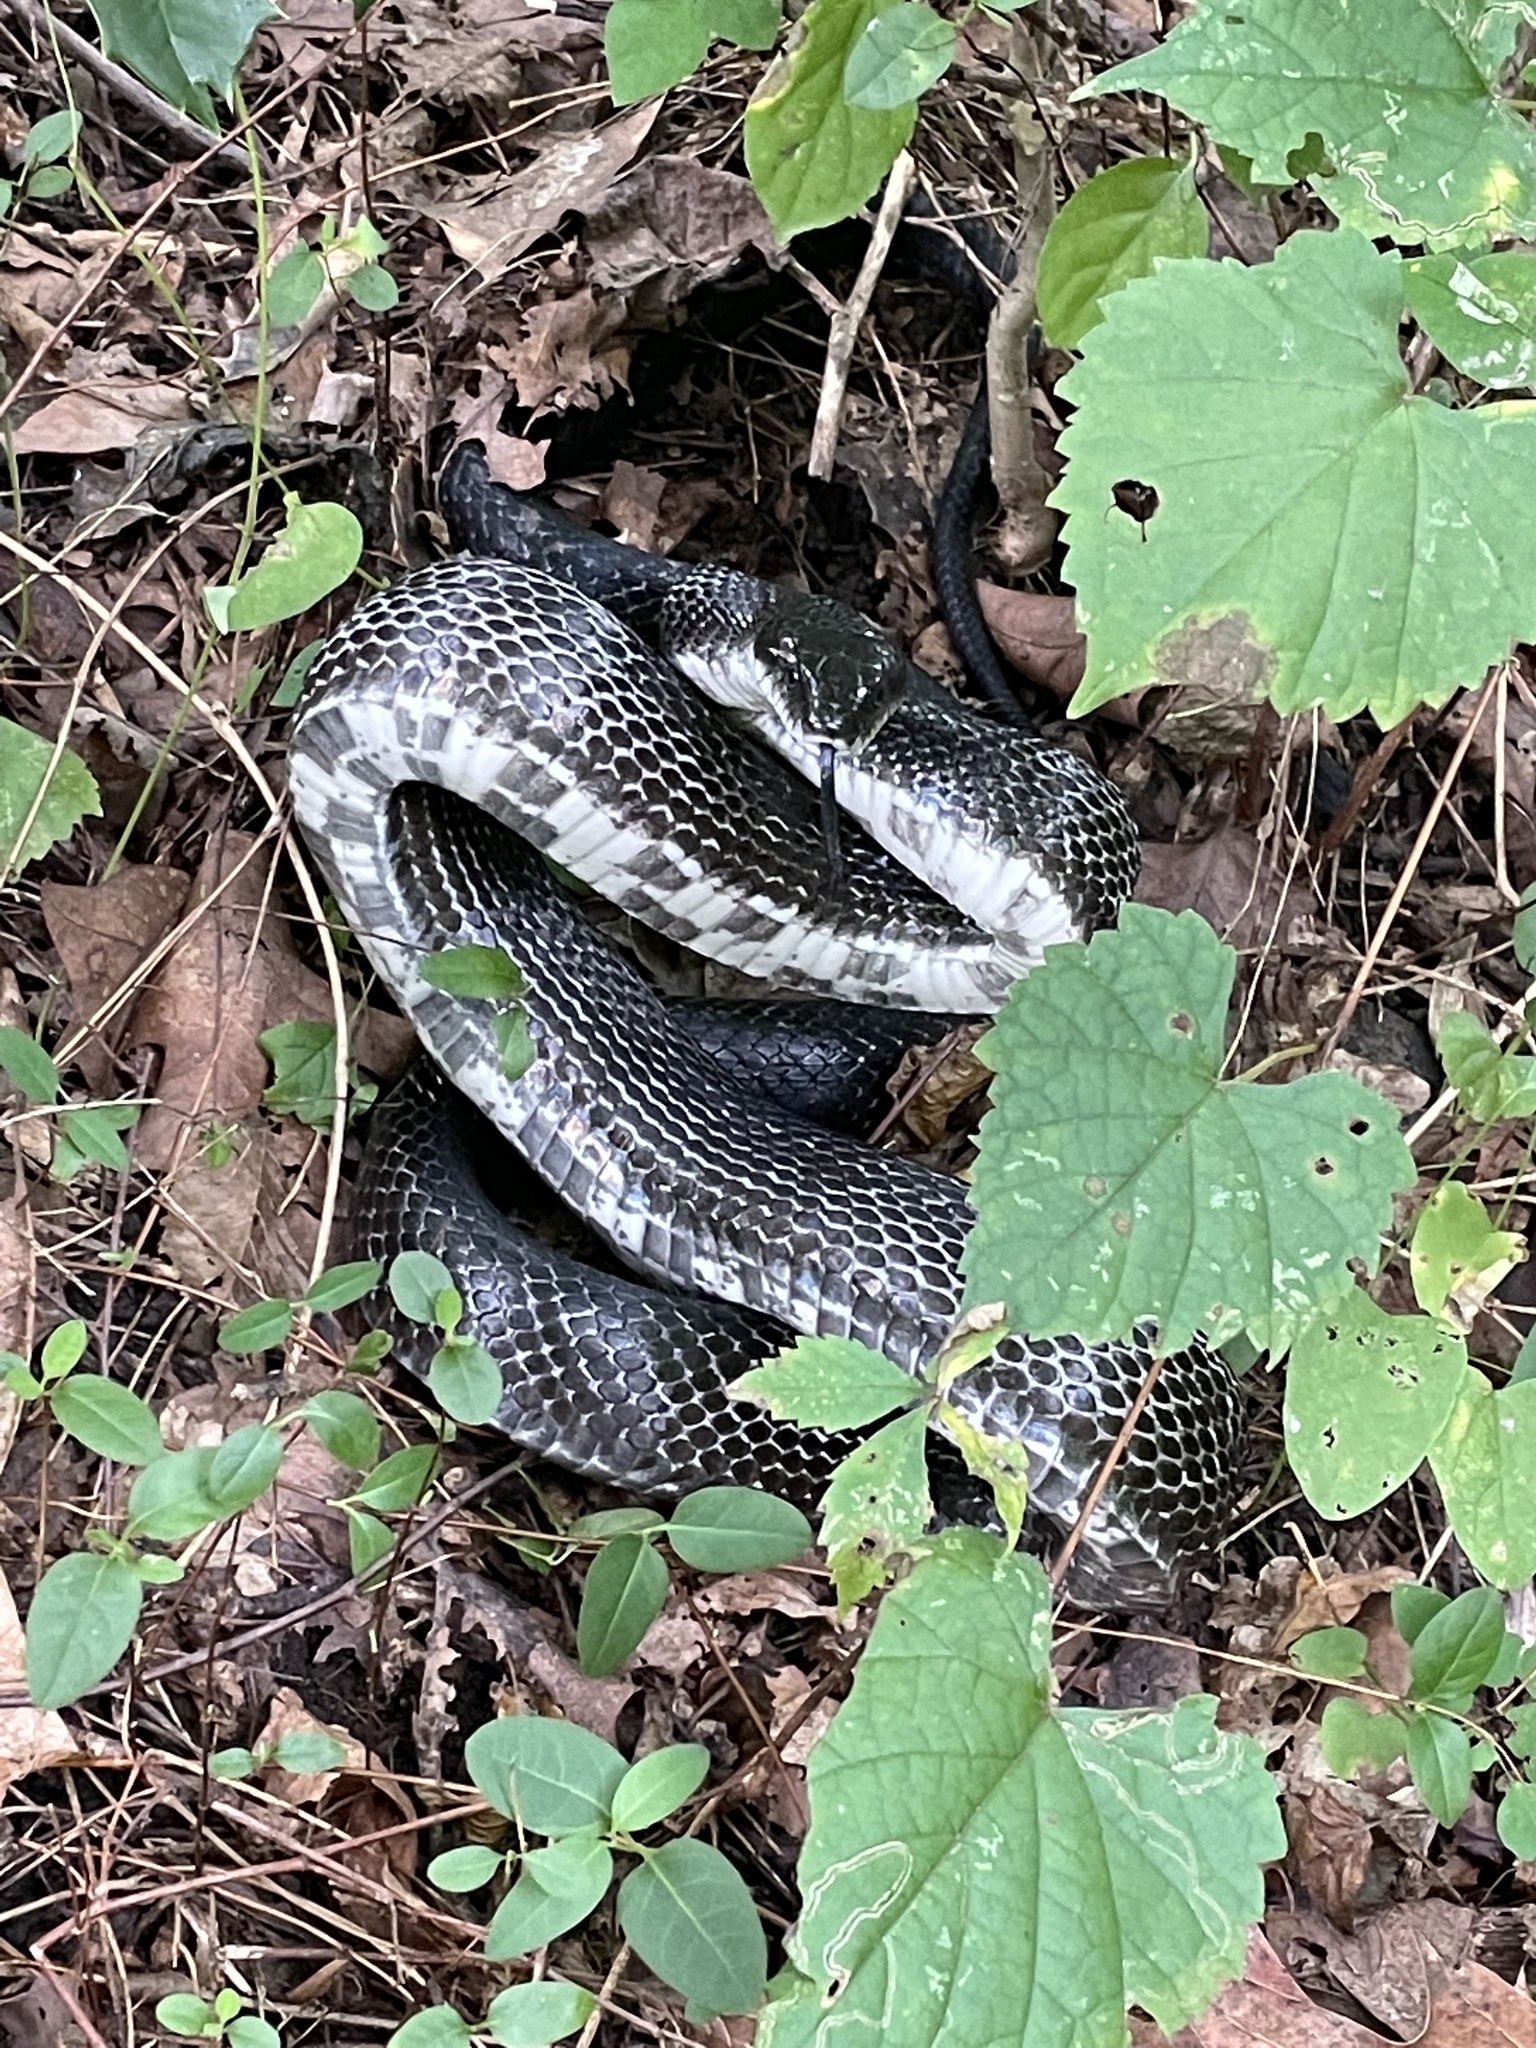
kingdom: Animalia
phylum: Chordata
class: Squamata
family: Colubridae
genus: Pantherophis
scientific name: Pantherophis alleghaniensis
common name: Eastern rat snake
